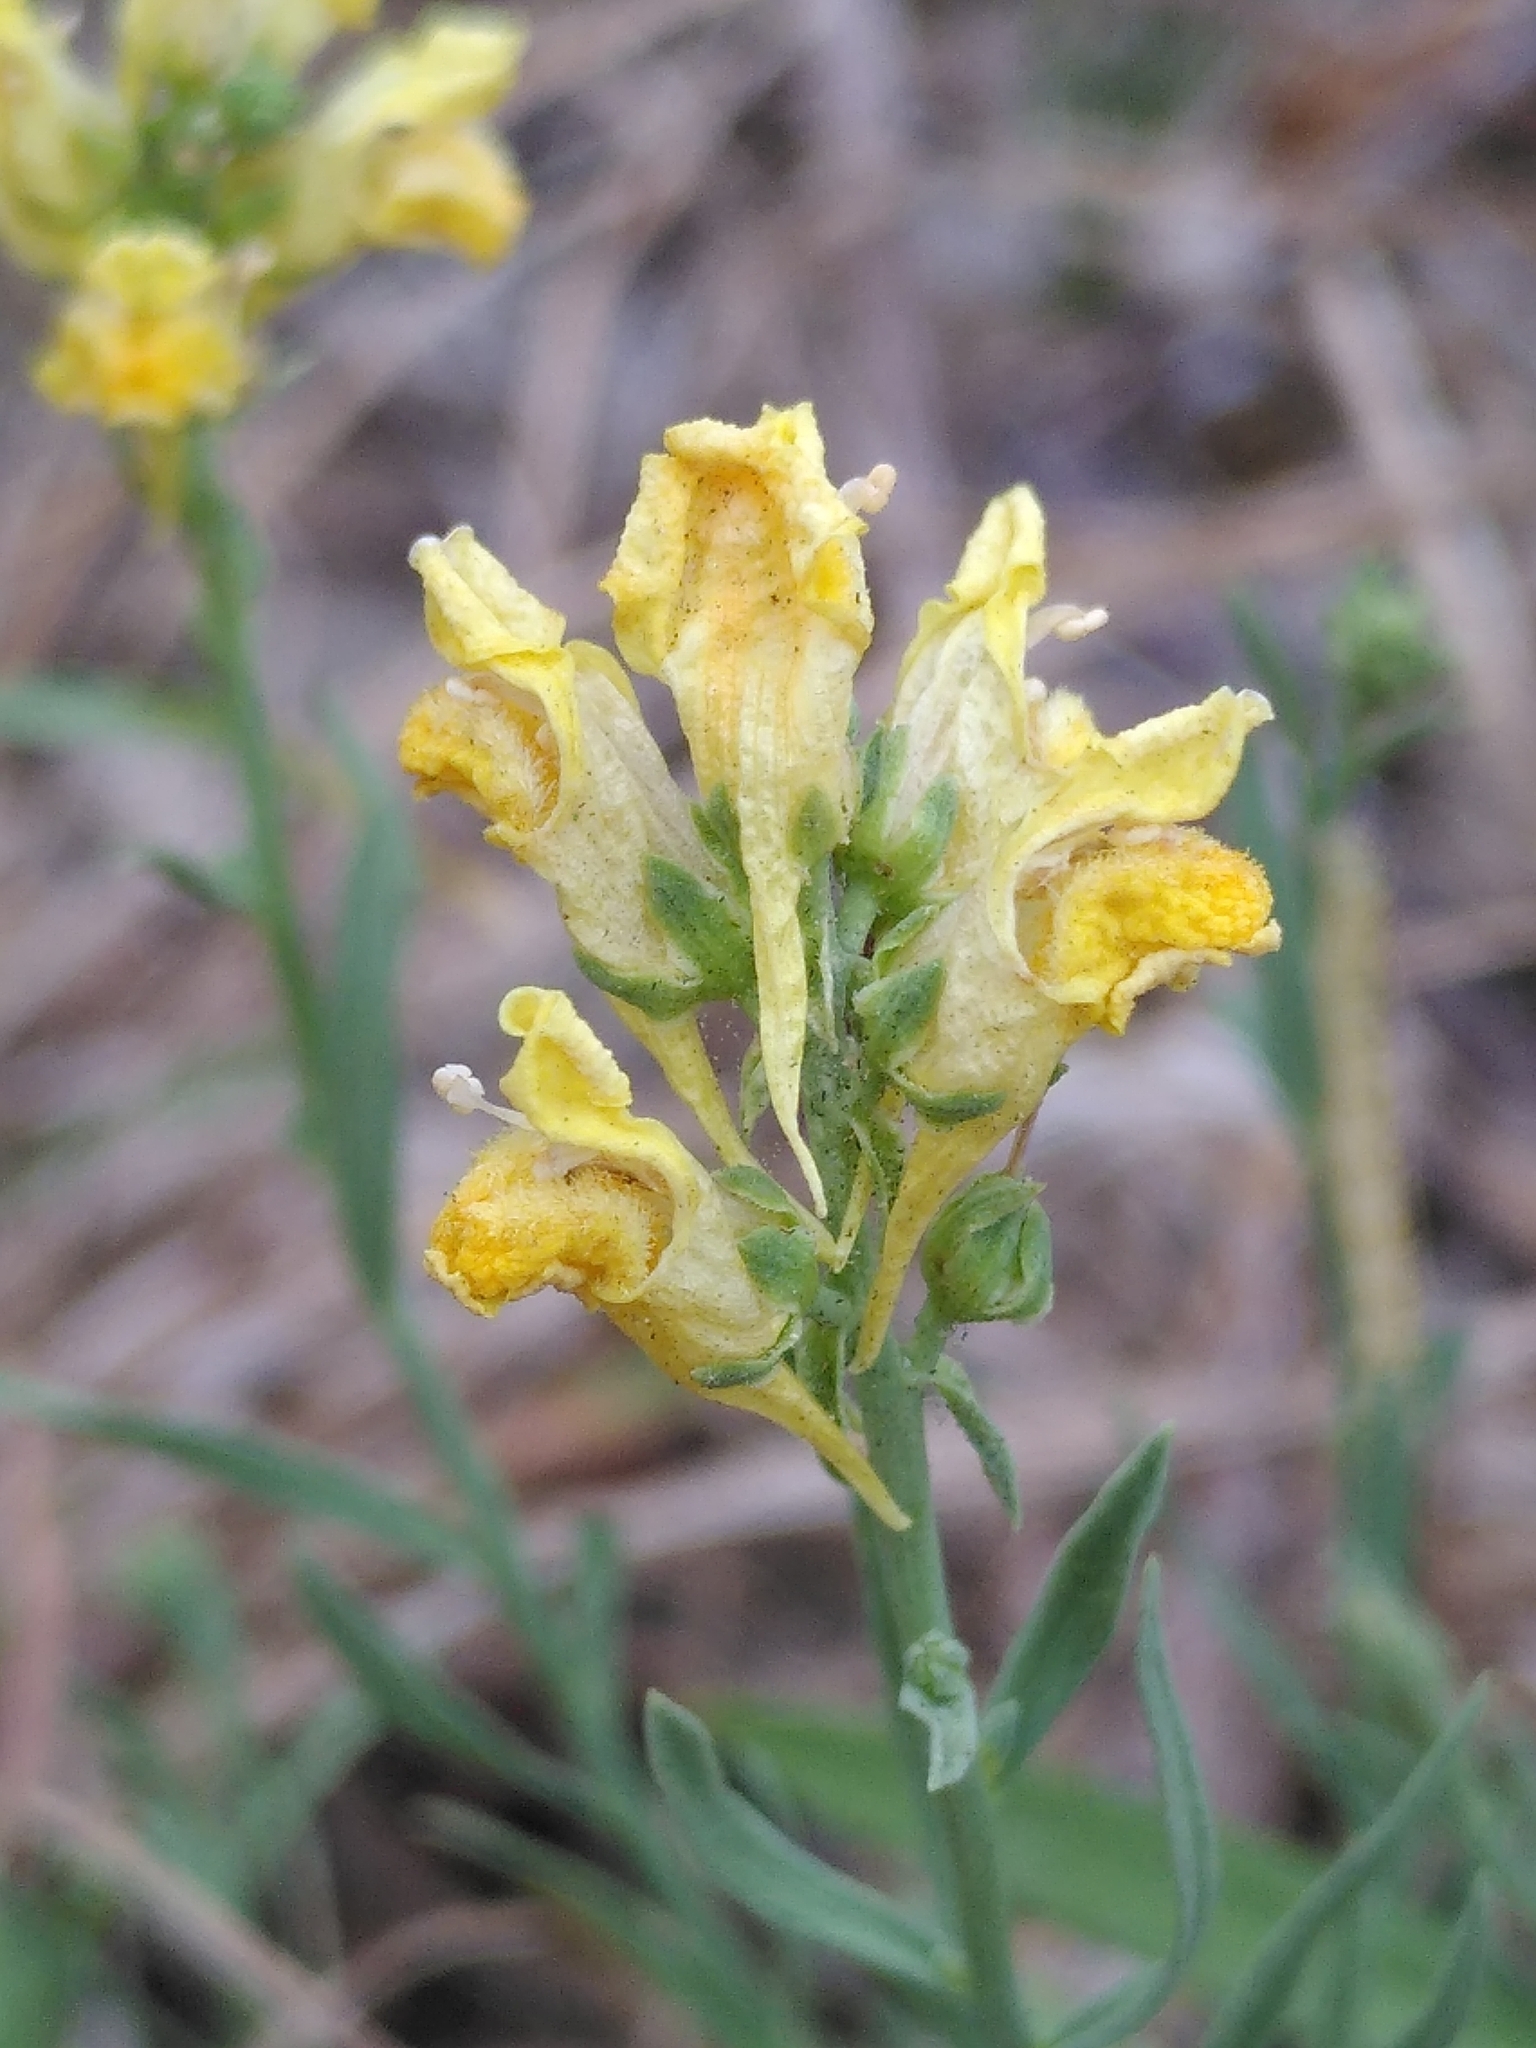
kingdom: Plantae
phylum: Tracheophyta
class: Magnoliopsida
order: Lamiales
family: Plantaginaceae
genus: Linaria
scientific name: Linaria vulgaris
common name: Butter and eggs
